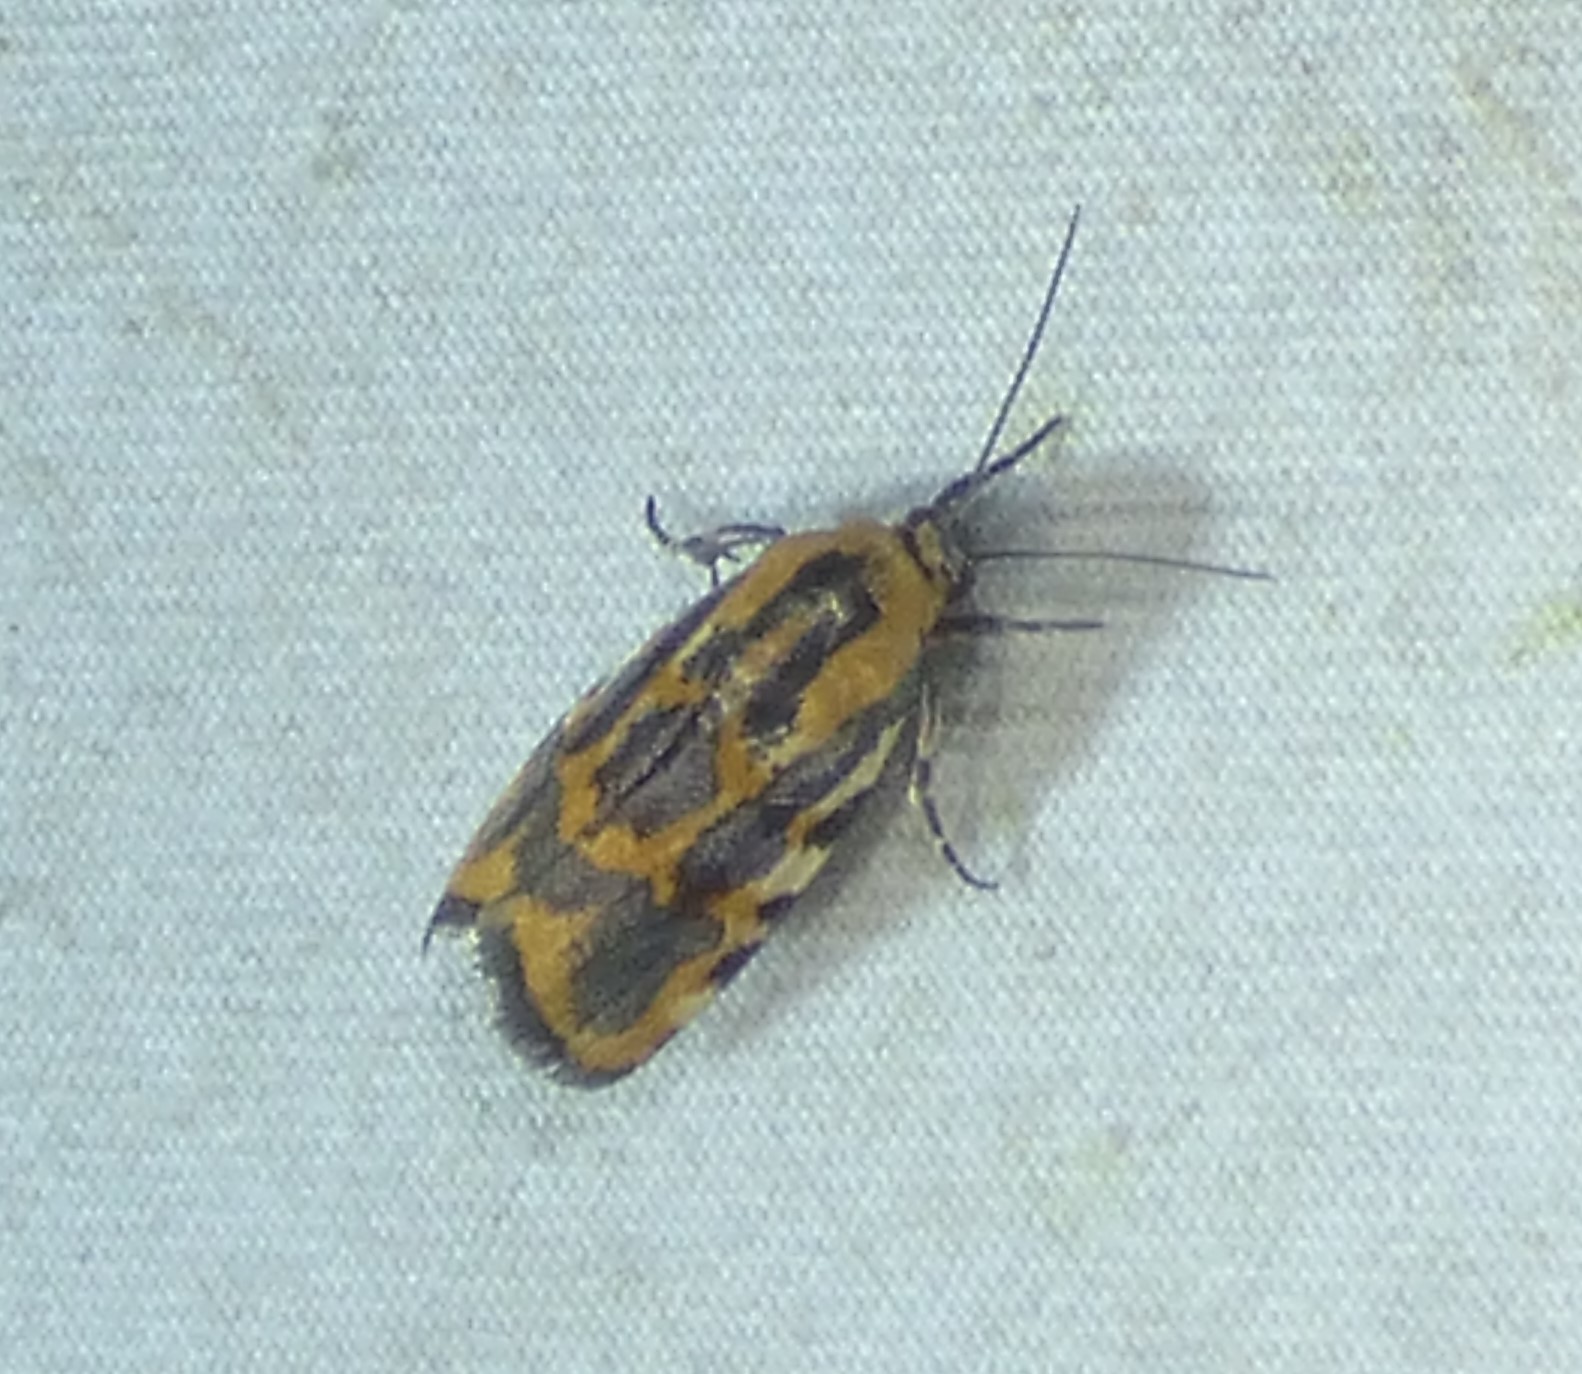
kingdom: Animalia
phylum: Arthropoda
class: Insecta
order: Lepidoptera
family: Noctuidae
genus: Acontia
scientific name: Acontia leo
